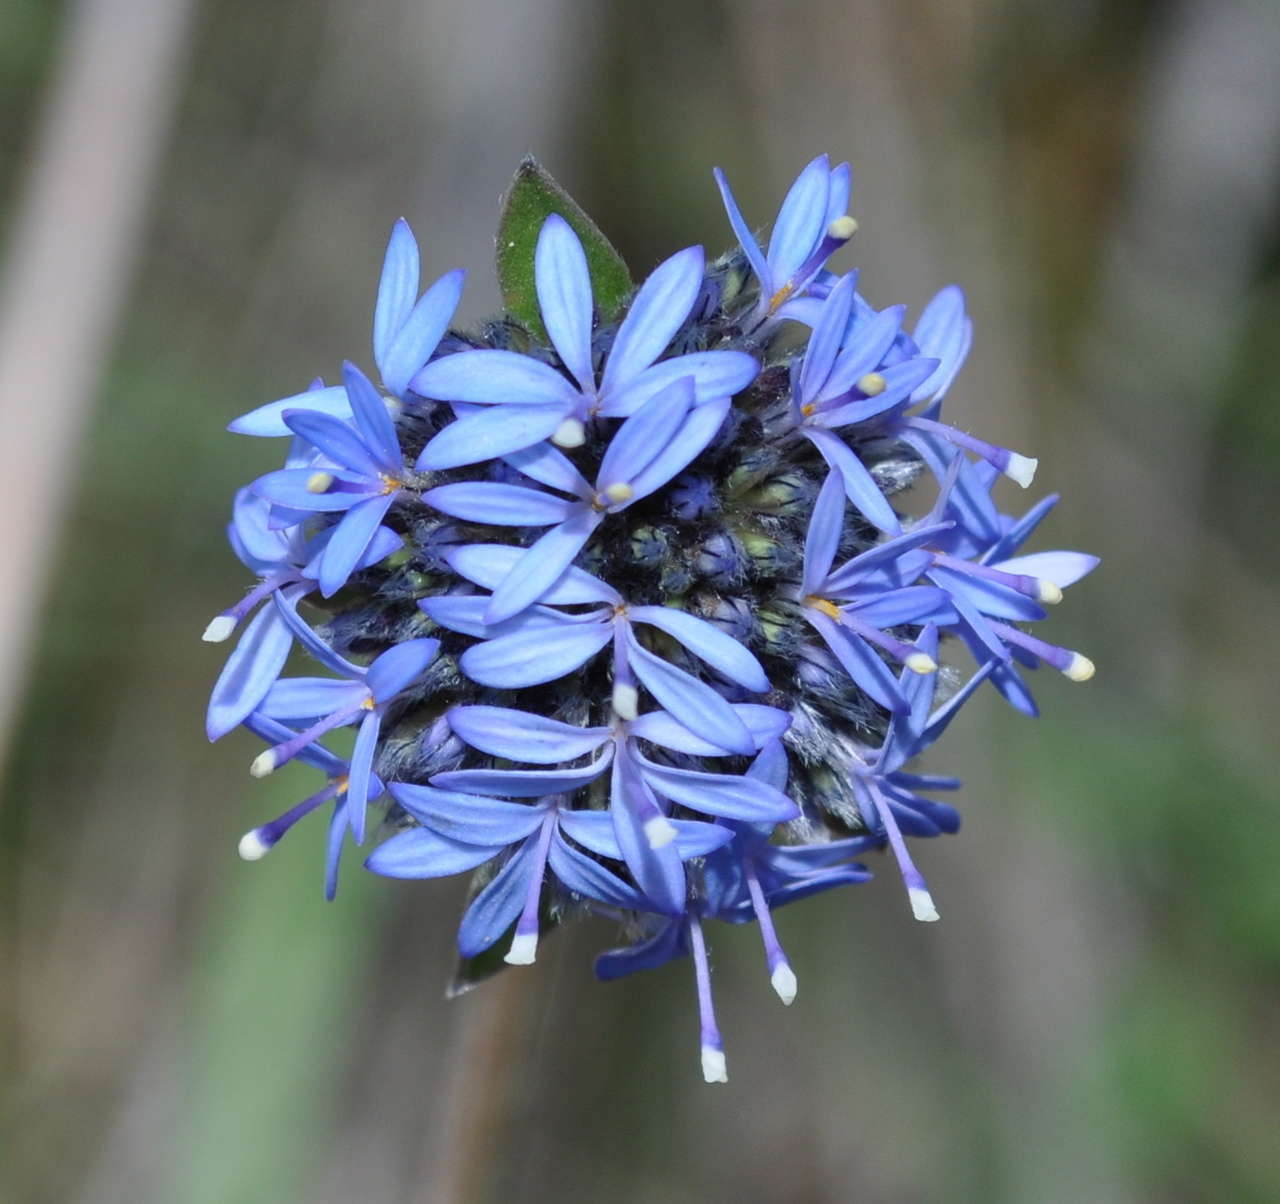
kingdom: Plantae
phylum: Tracheophyta
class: Magnoliopsida
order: Asterales
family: Goodeniaceae
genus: Brunonia
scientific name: Brunonia australis
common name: Blue pincushion
